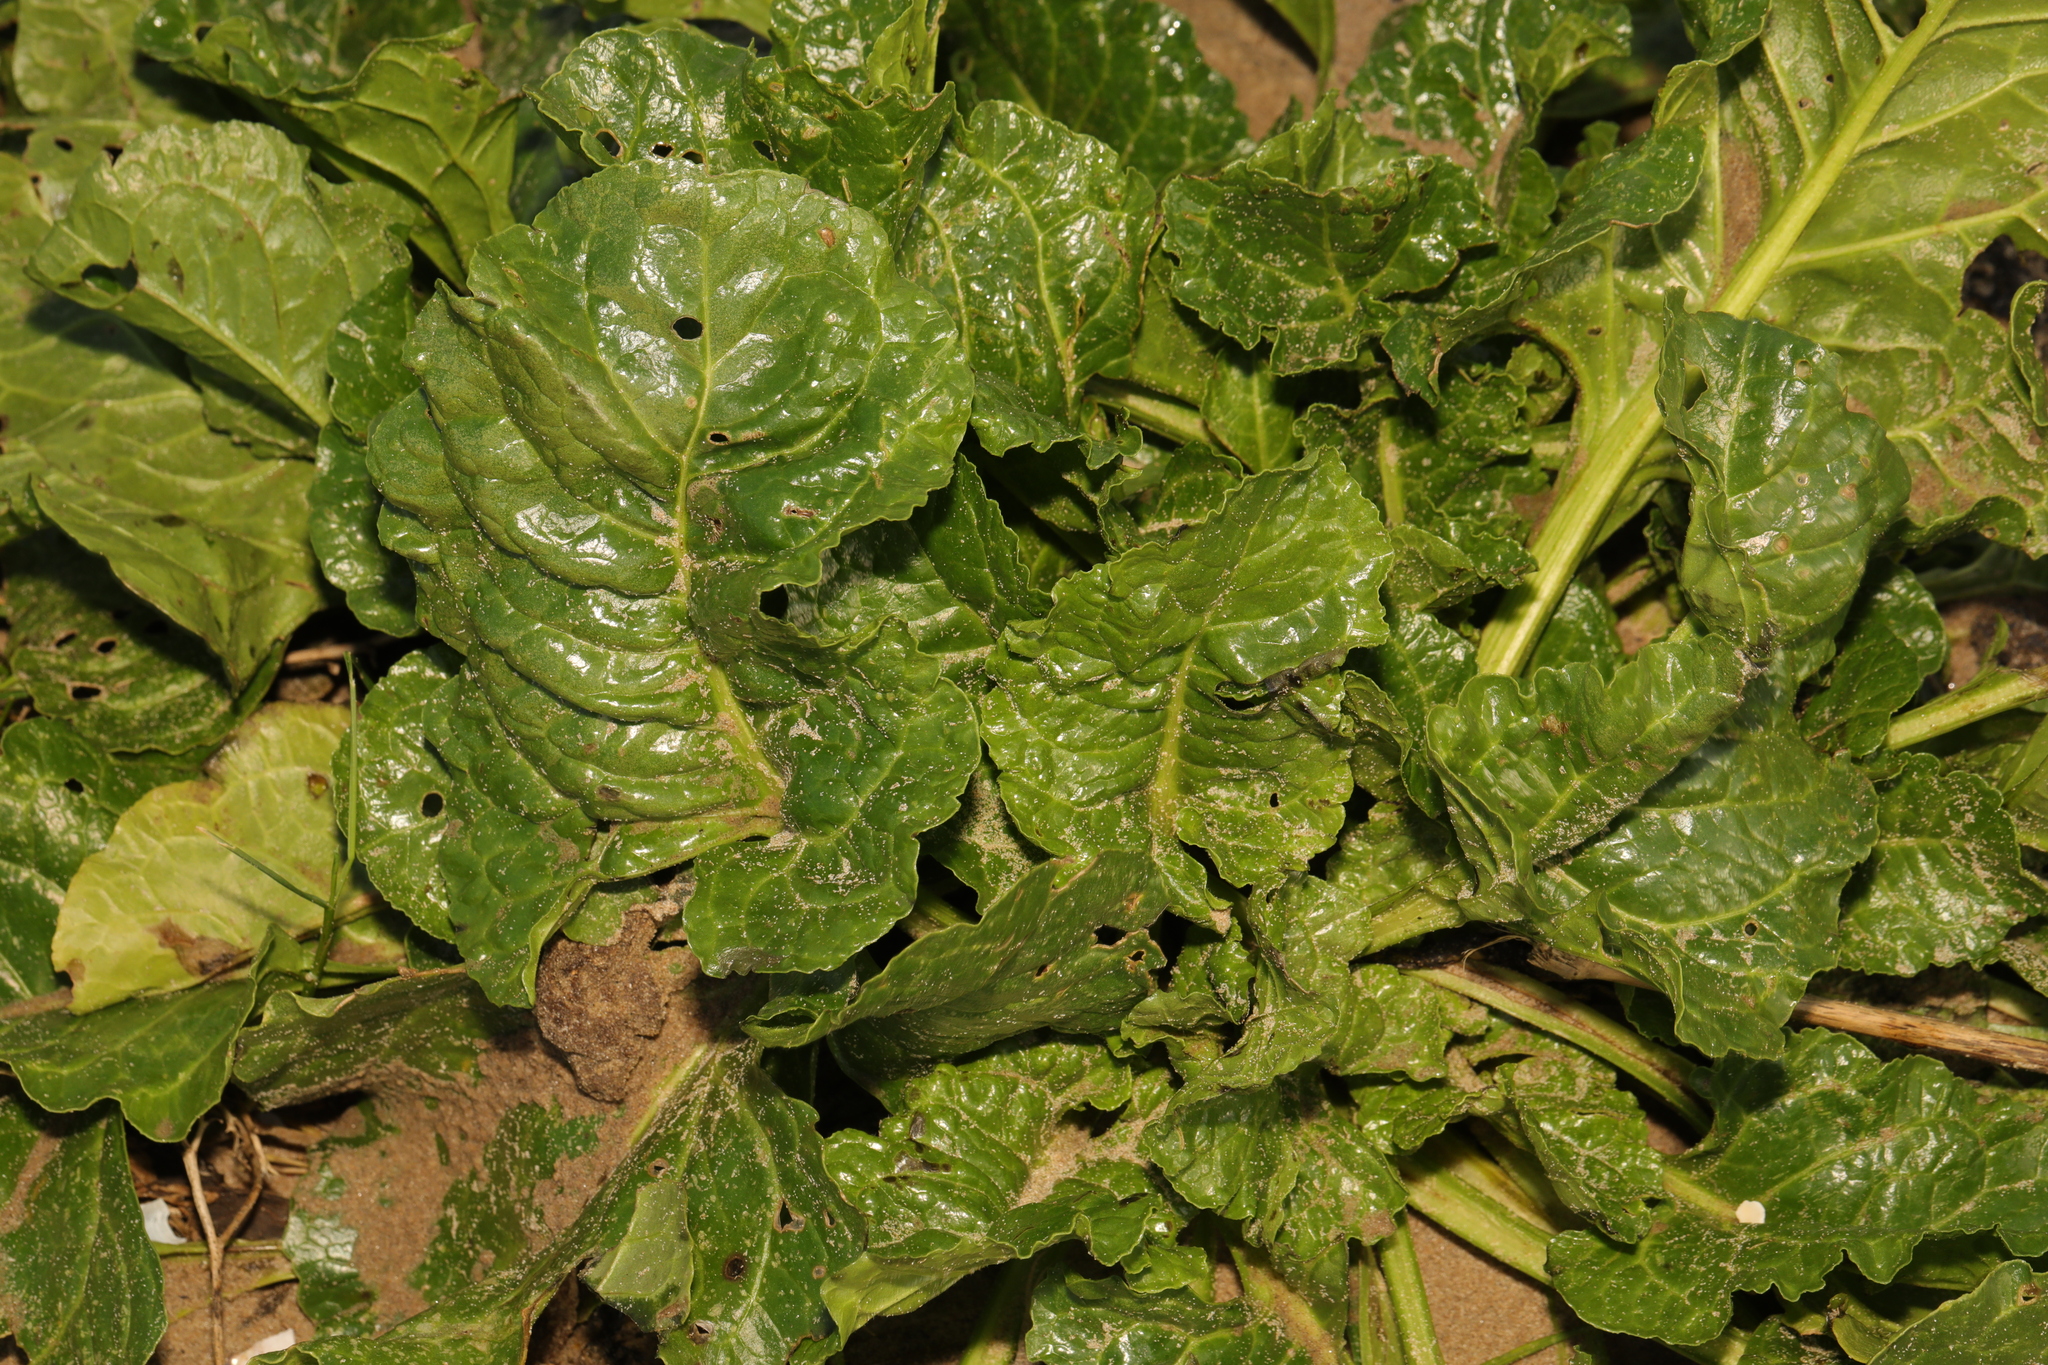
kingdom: Plantae
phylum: Tracheophyta
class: Magnoliopsida
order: Caryophyllales
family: Amaranthaceae
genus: Beta
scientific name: Beta vulgaris
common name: Beet
